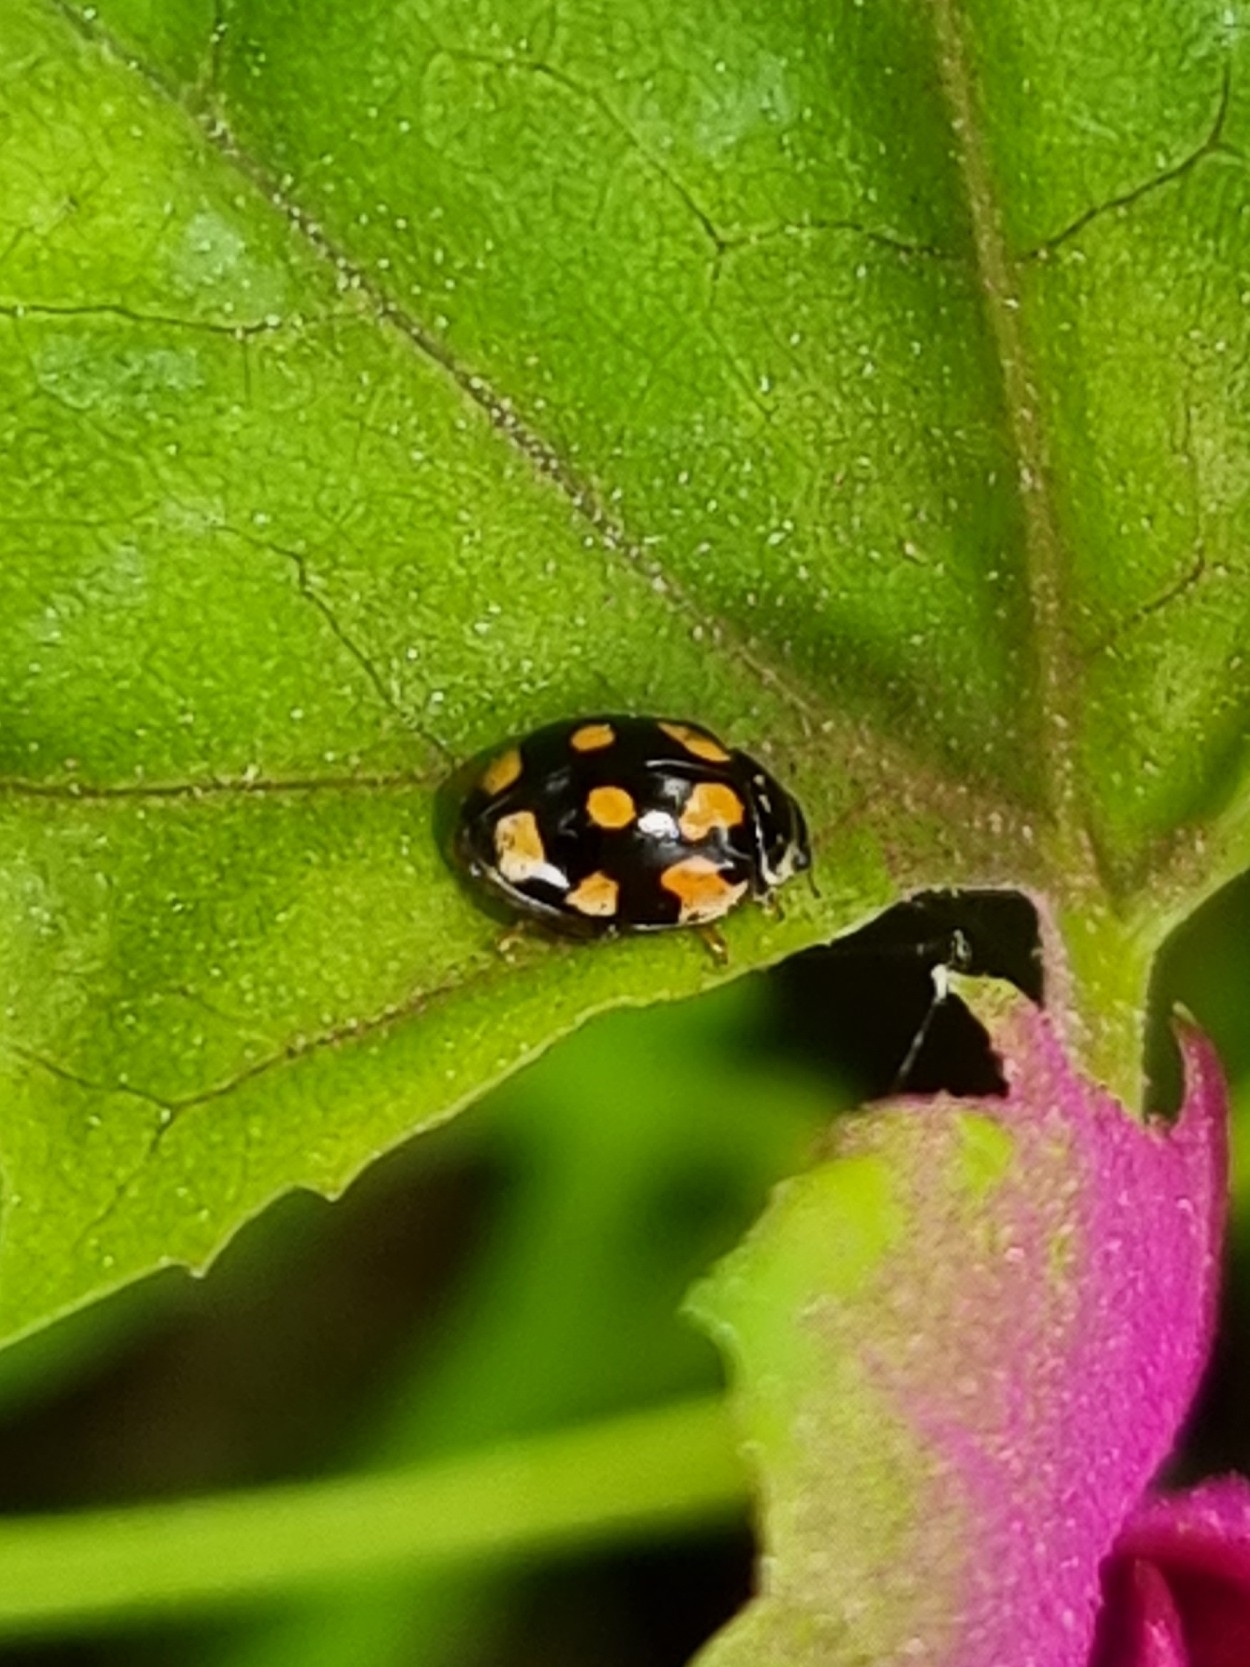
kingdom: Animalia
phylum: Arthropoda
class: Insecta
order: Coleoptera
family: Coccinellidae
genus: Adalia
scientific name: Adalia decempunctata
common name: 10-spot ladybird
